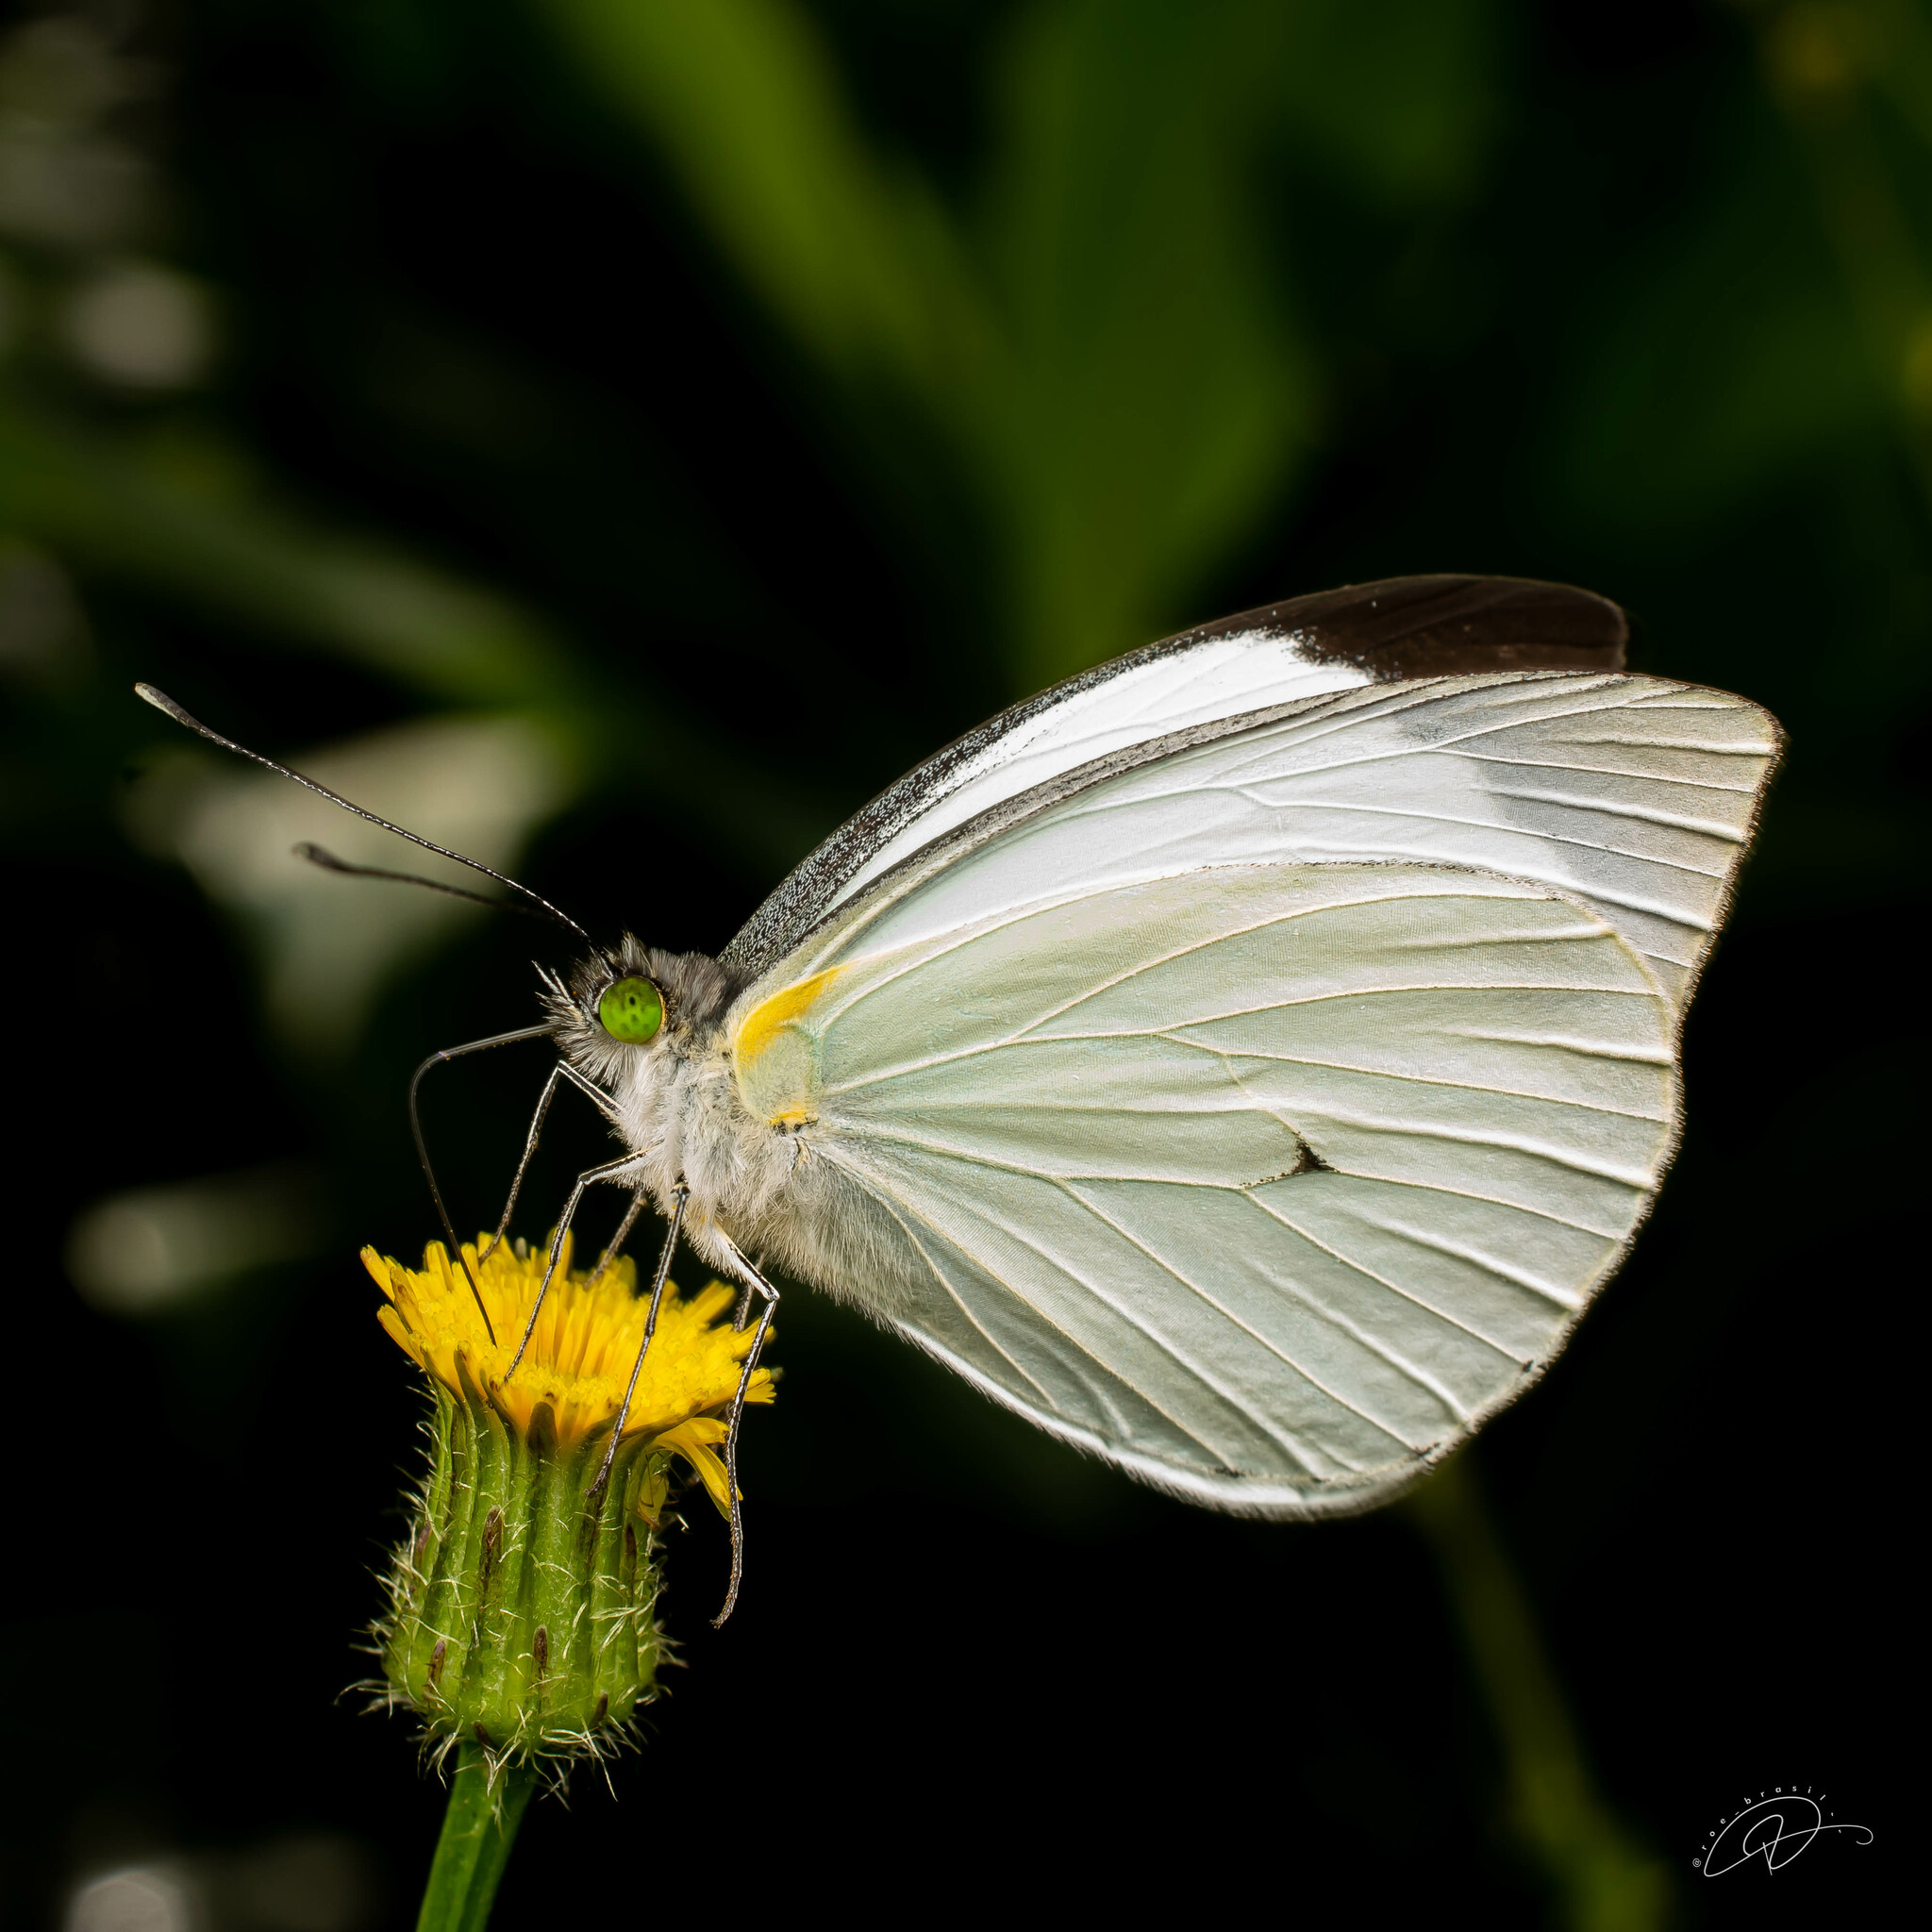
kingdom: Animalia
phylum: Arthropoda
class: Insecta
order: Lepidoptera
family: Pieridae
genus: Leptophobia
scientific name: Leptophobia aripa
